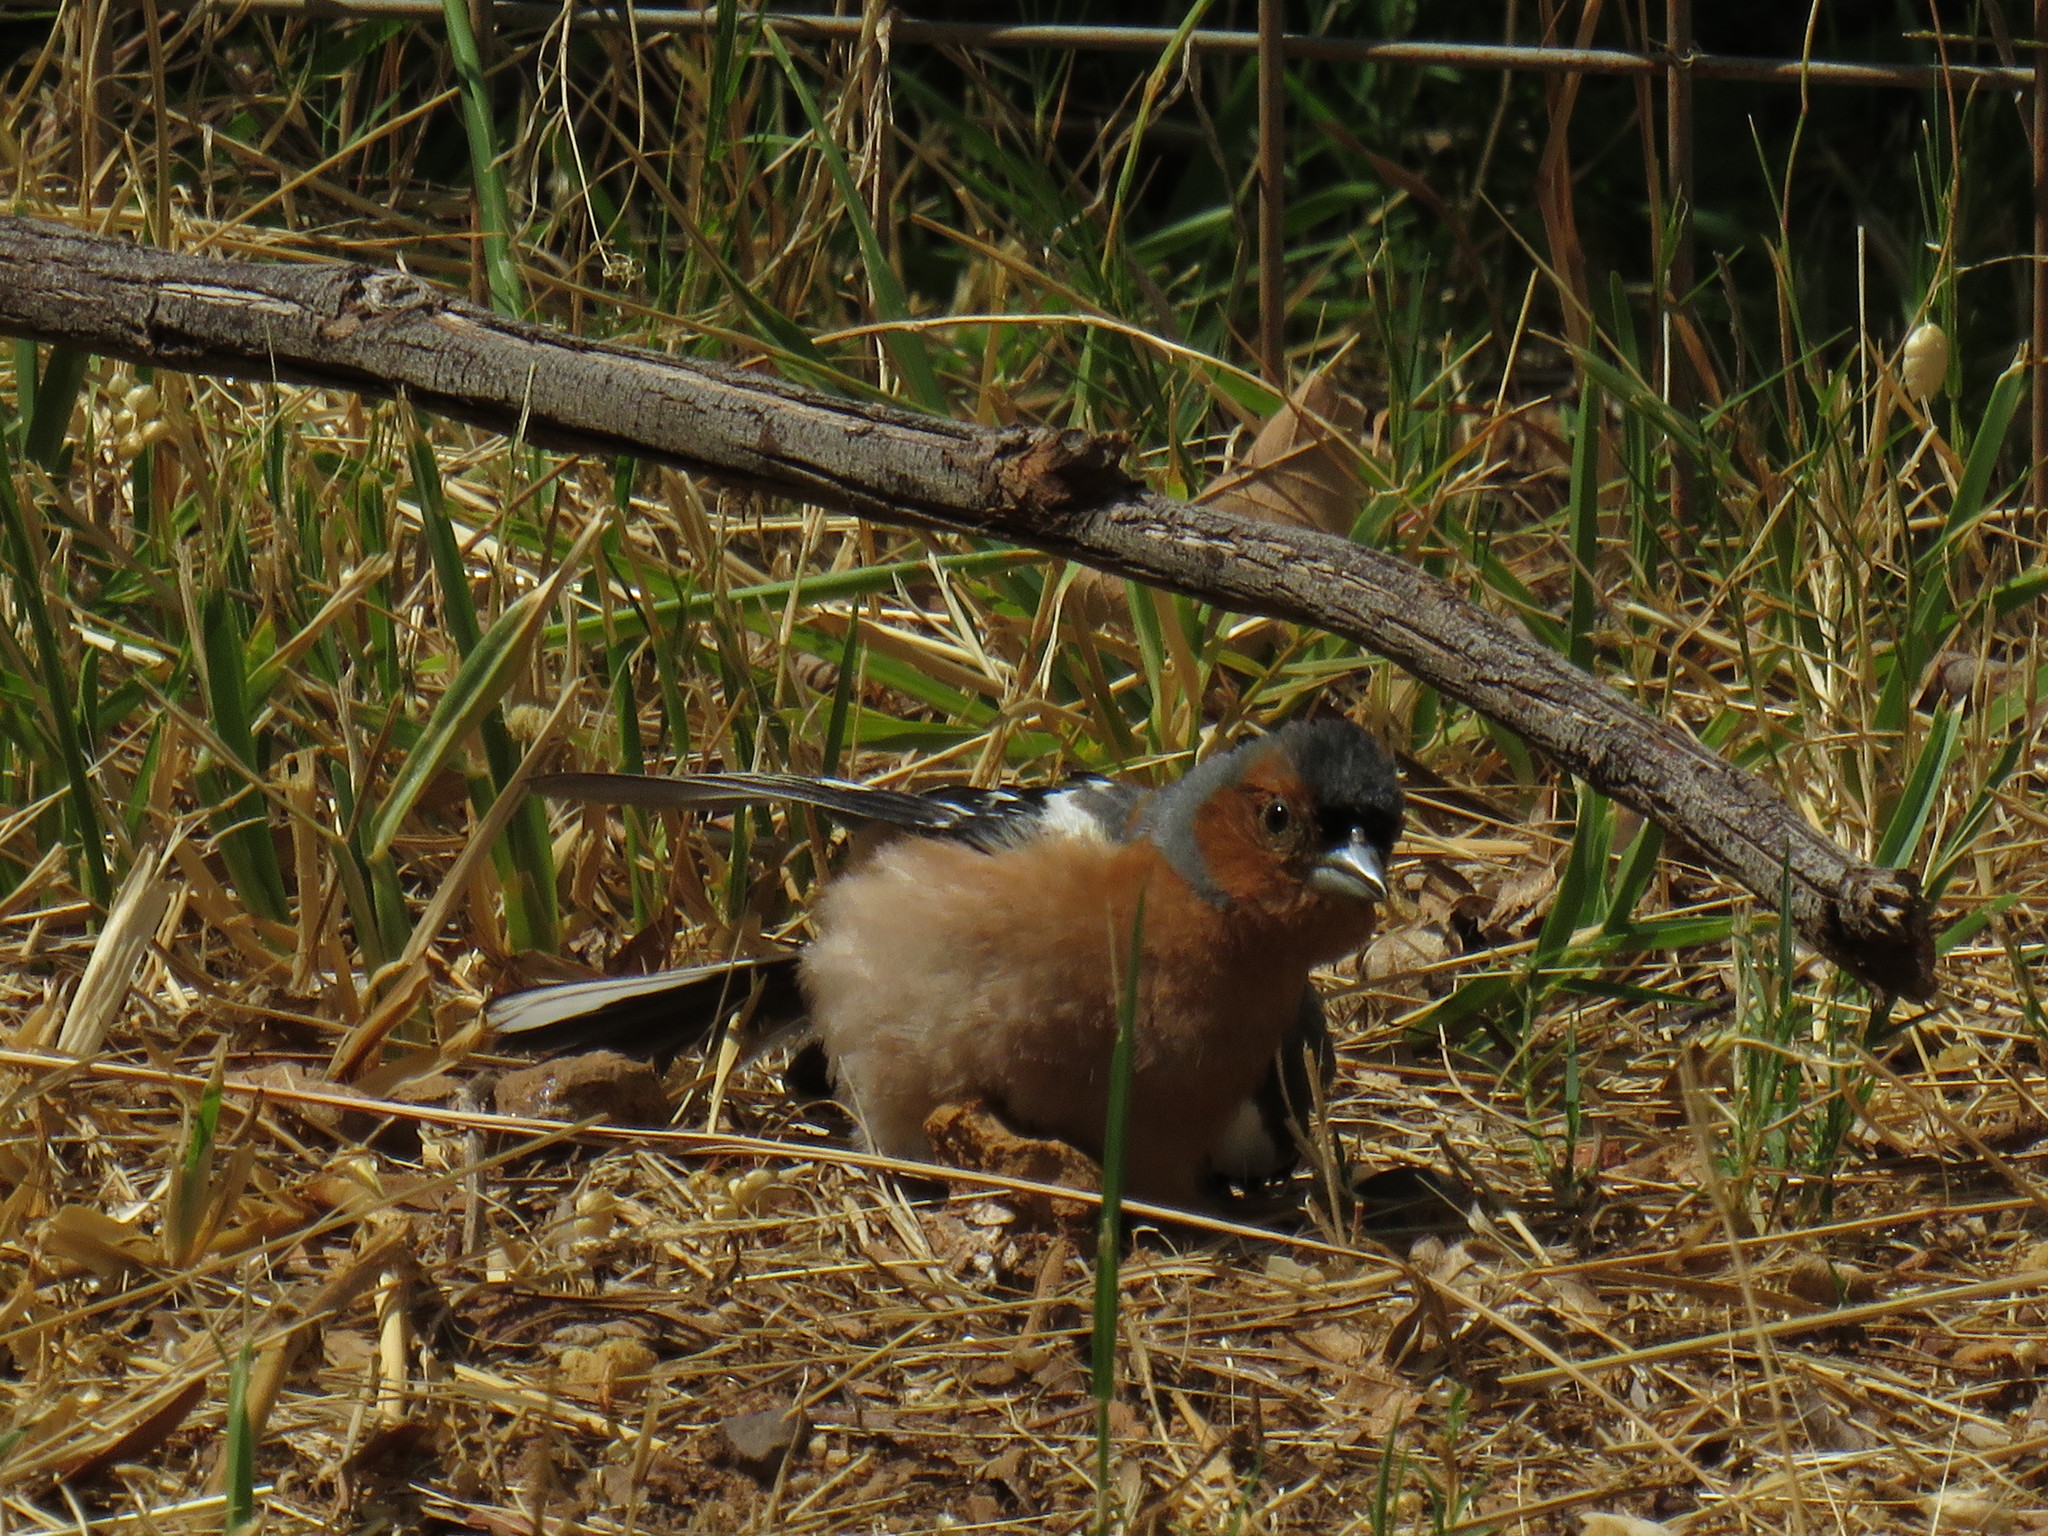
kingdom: Animalia
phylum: Chordata
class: Aves
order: Passeriformes
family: Fringillidae
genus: Fringilla
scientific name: Fringilla coelebs
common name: Common chaffinch
